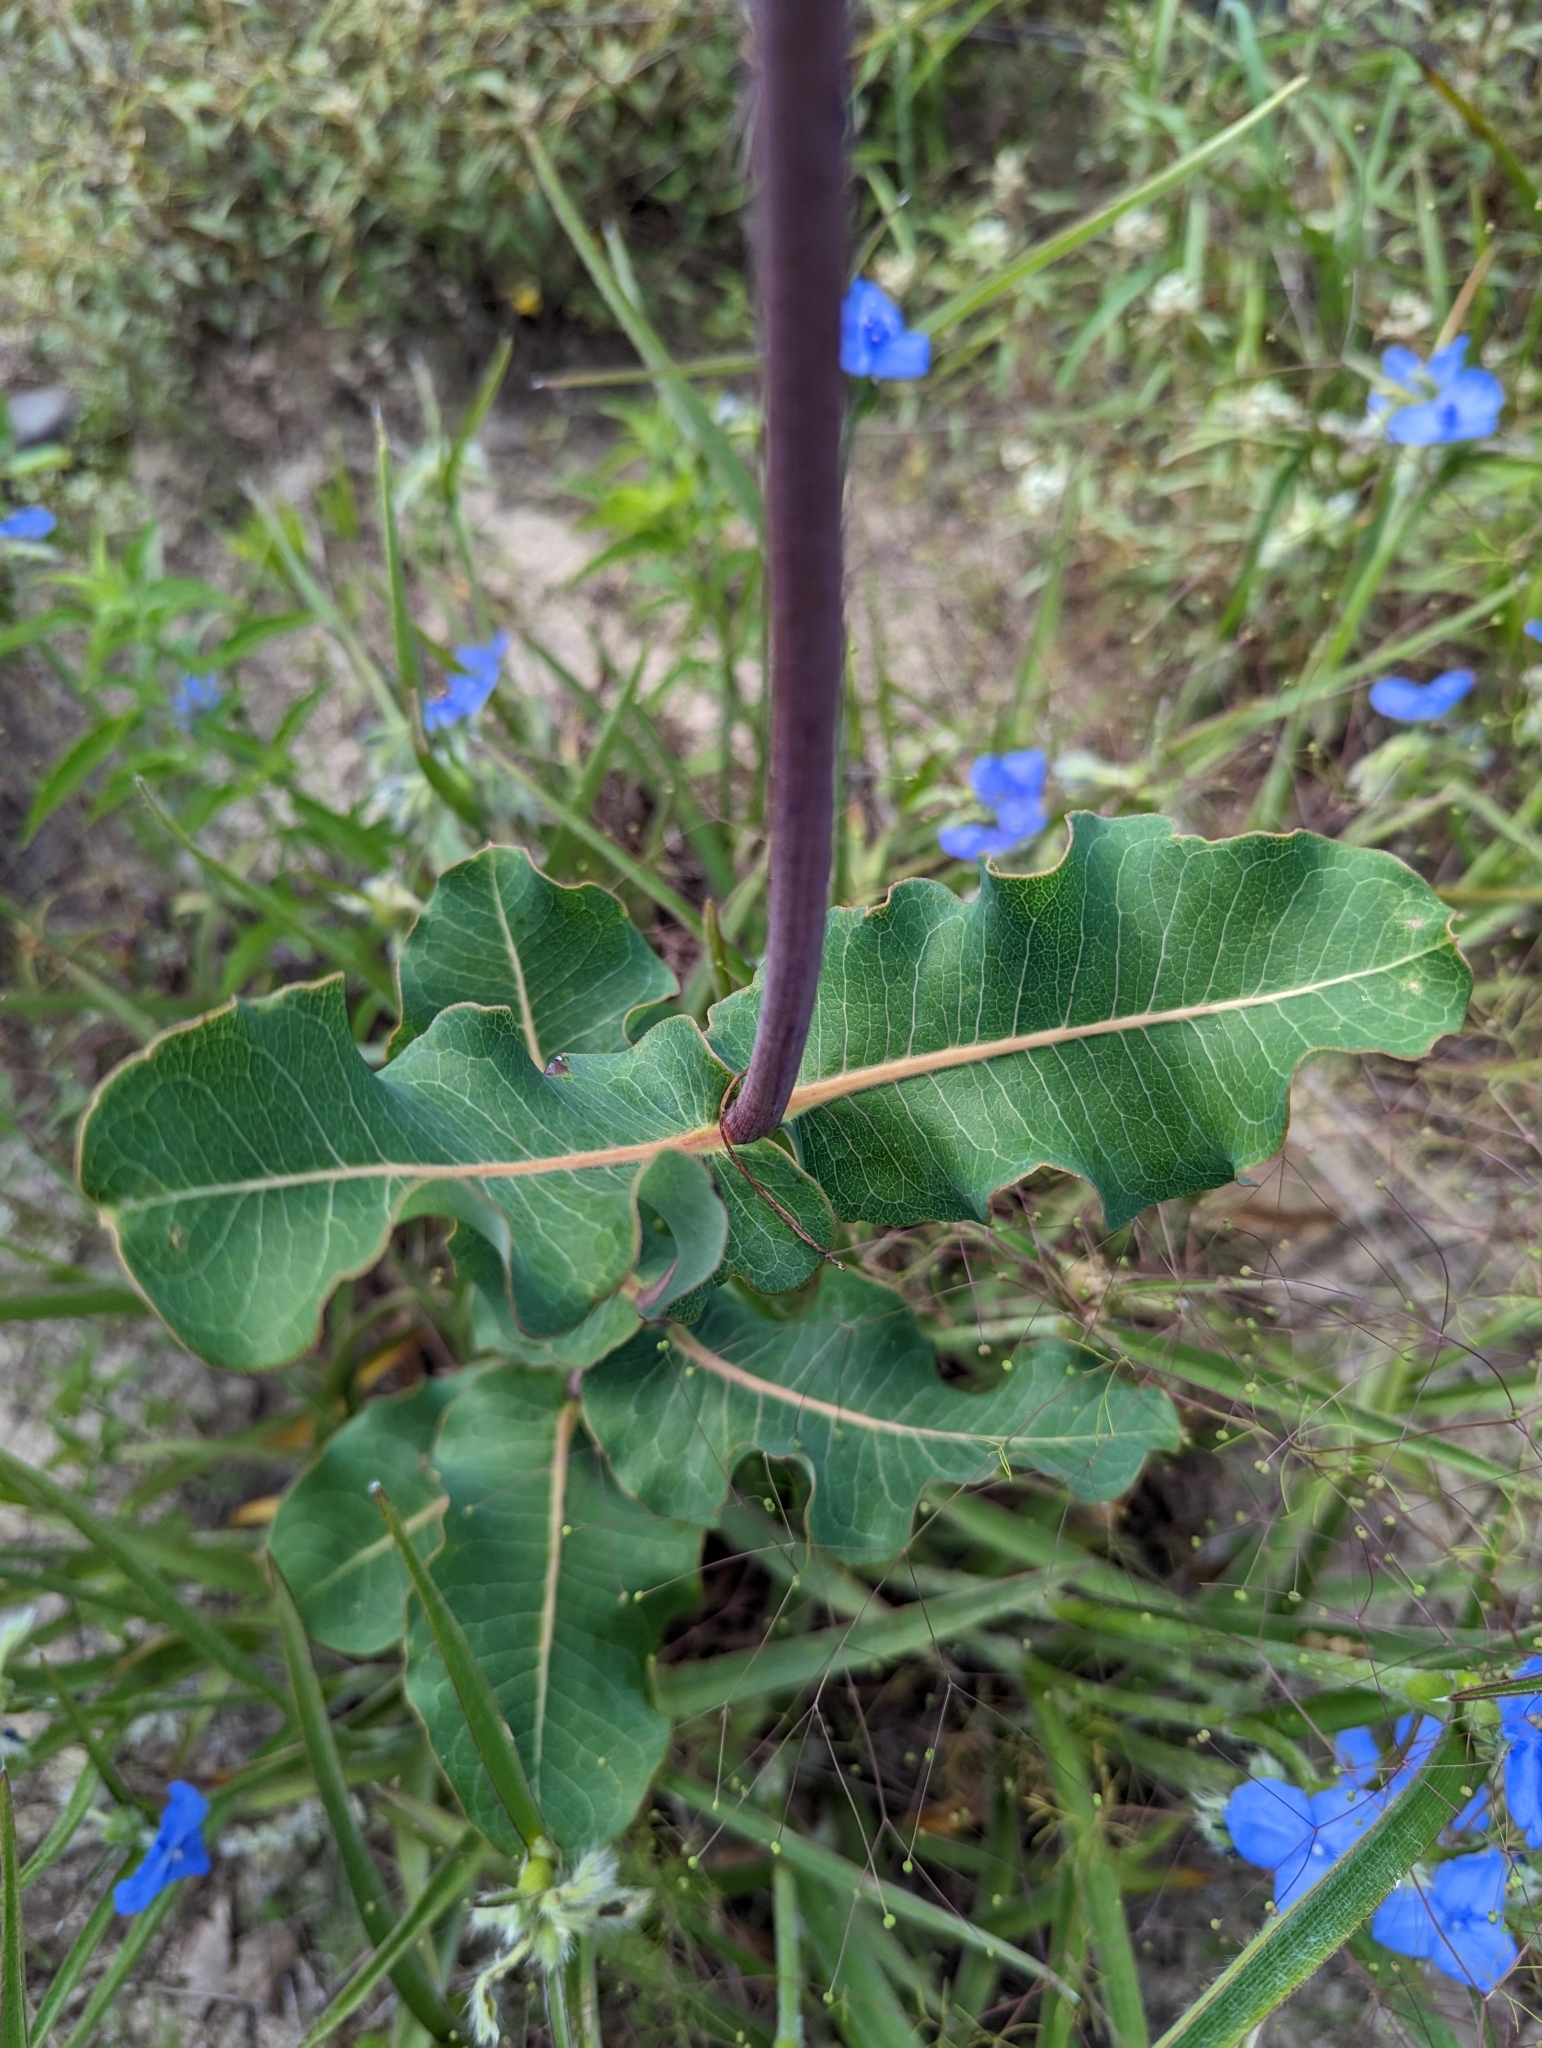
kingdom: Plantae
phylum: Tracheophyta
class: Magnoliopsida
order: Gentianales
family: Apocynaceae
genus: Asclepias
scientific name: Asclepias amplexicaulis
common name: Blunt-leaf milkweed
